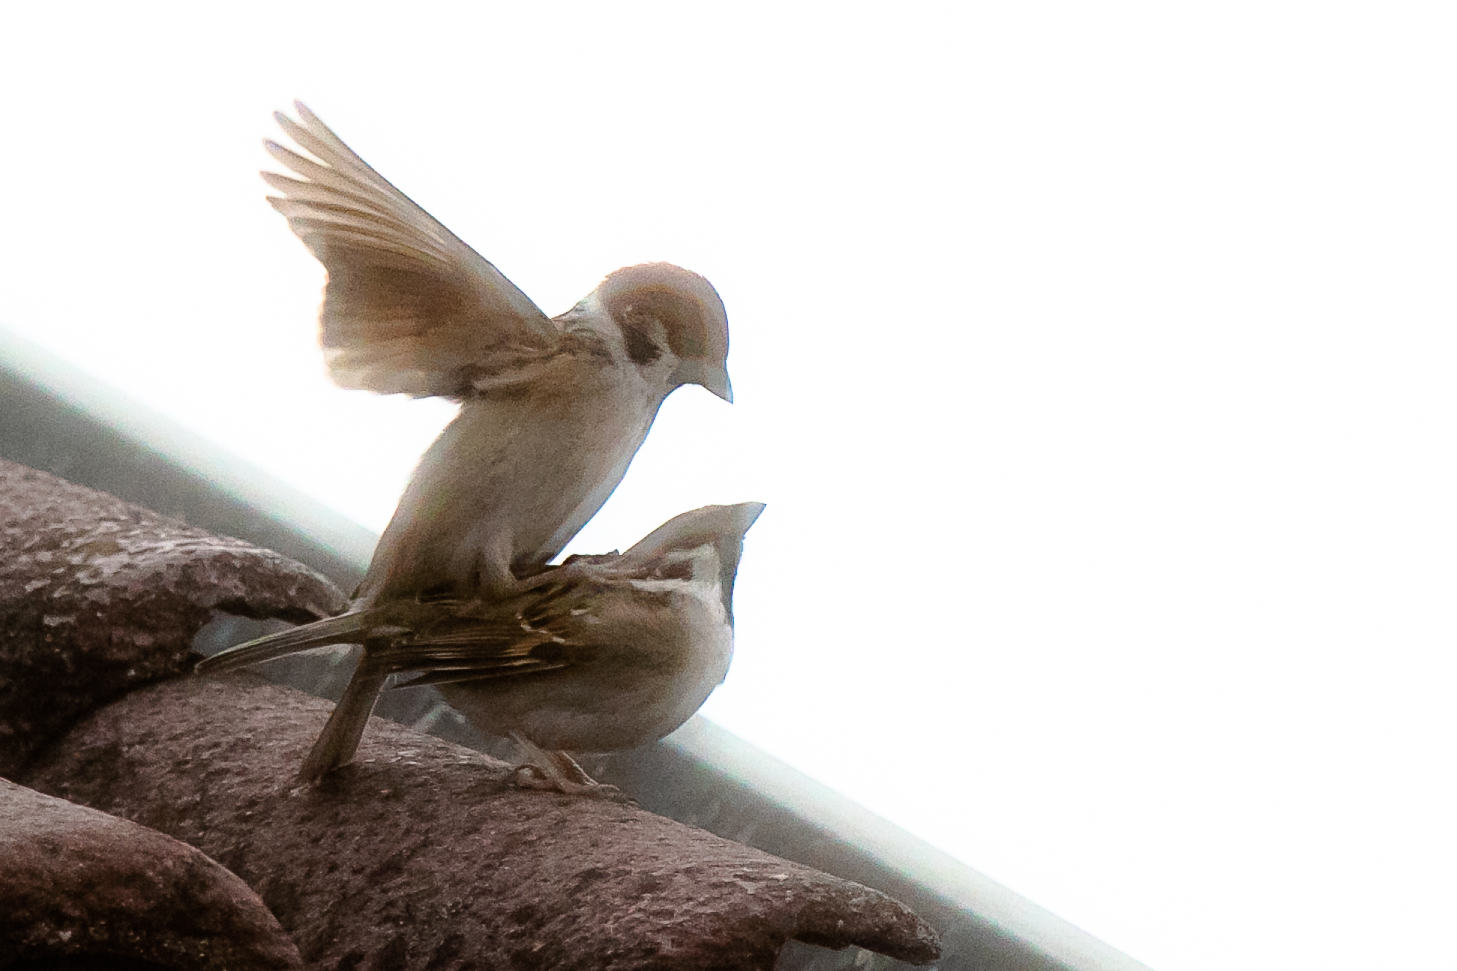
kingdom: Animalia
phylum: Chordata
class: Aves
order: Passeriformes
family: Passeridae
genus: Passer
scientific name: Passer montanus
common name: Eurasian tree sparrow
